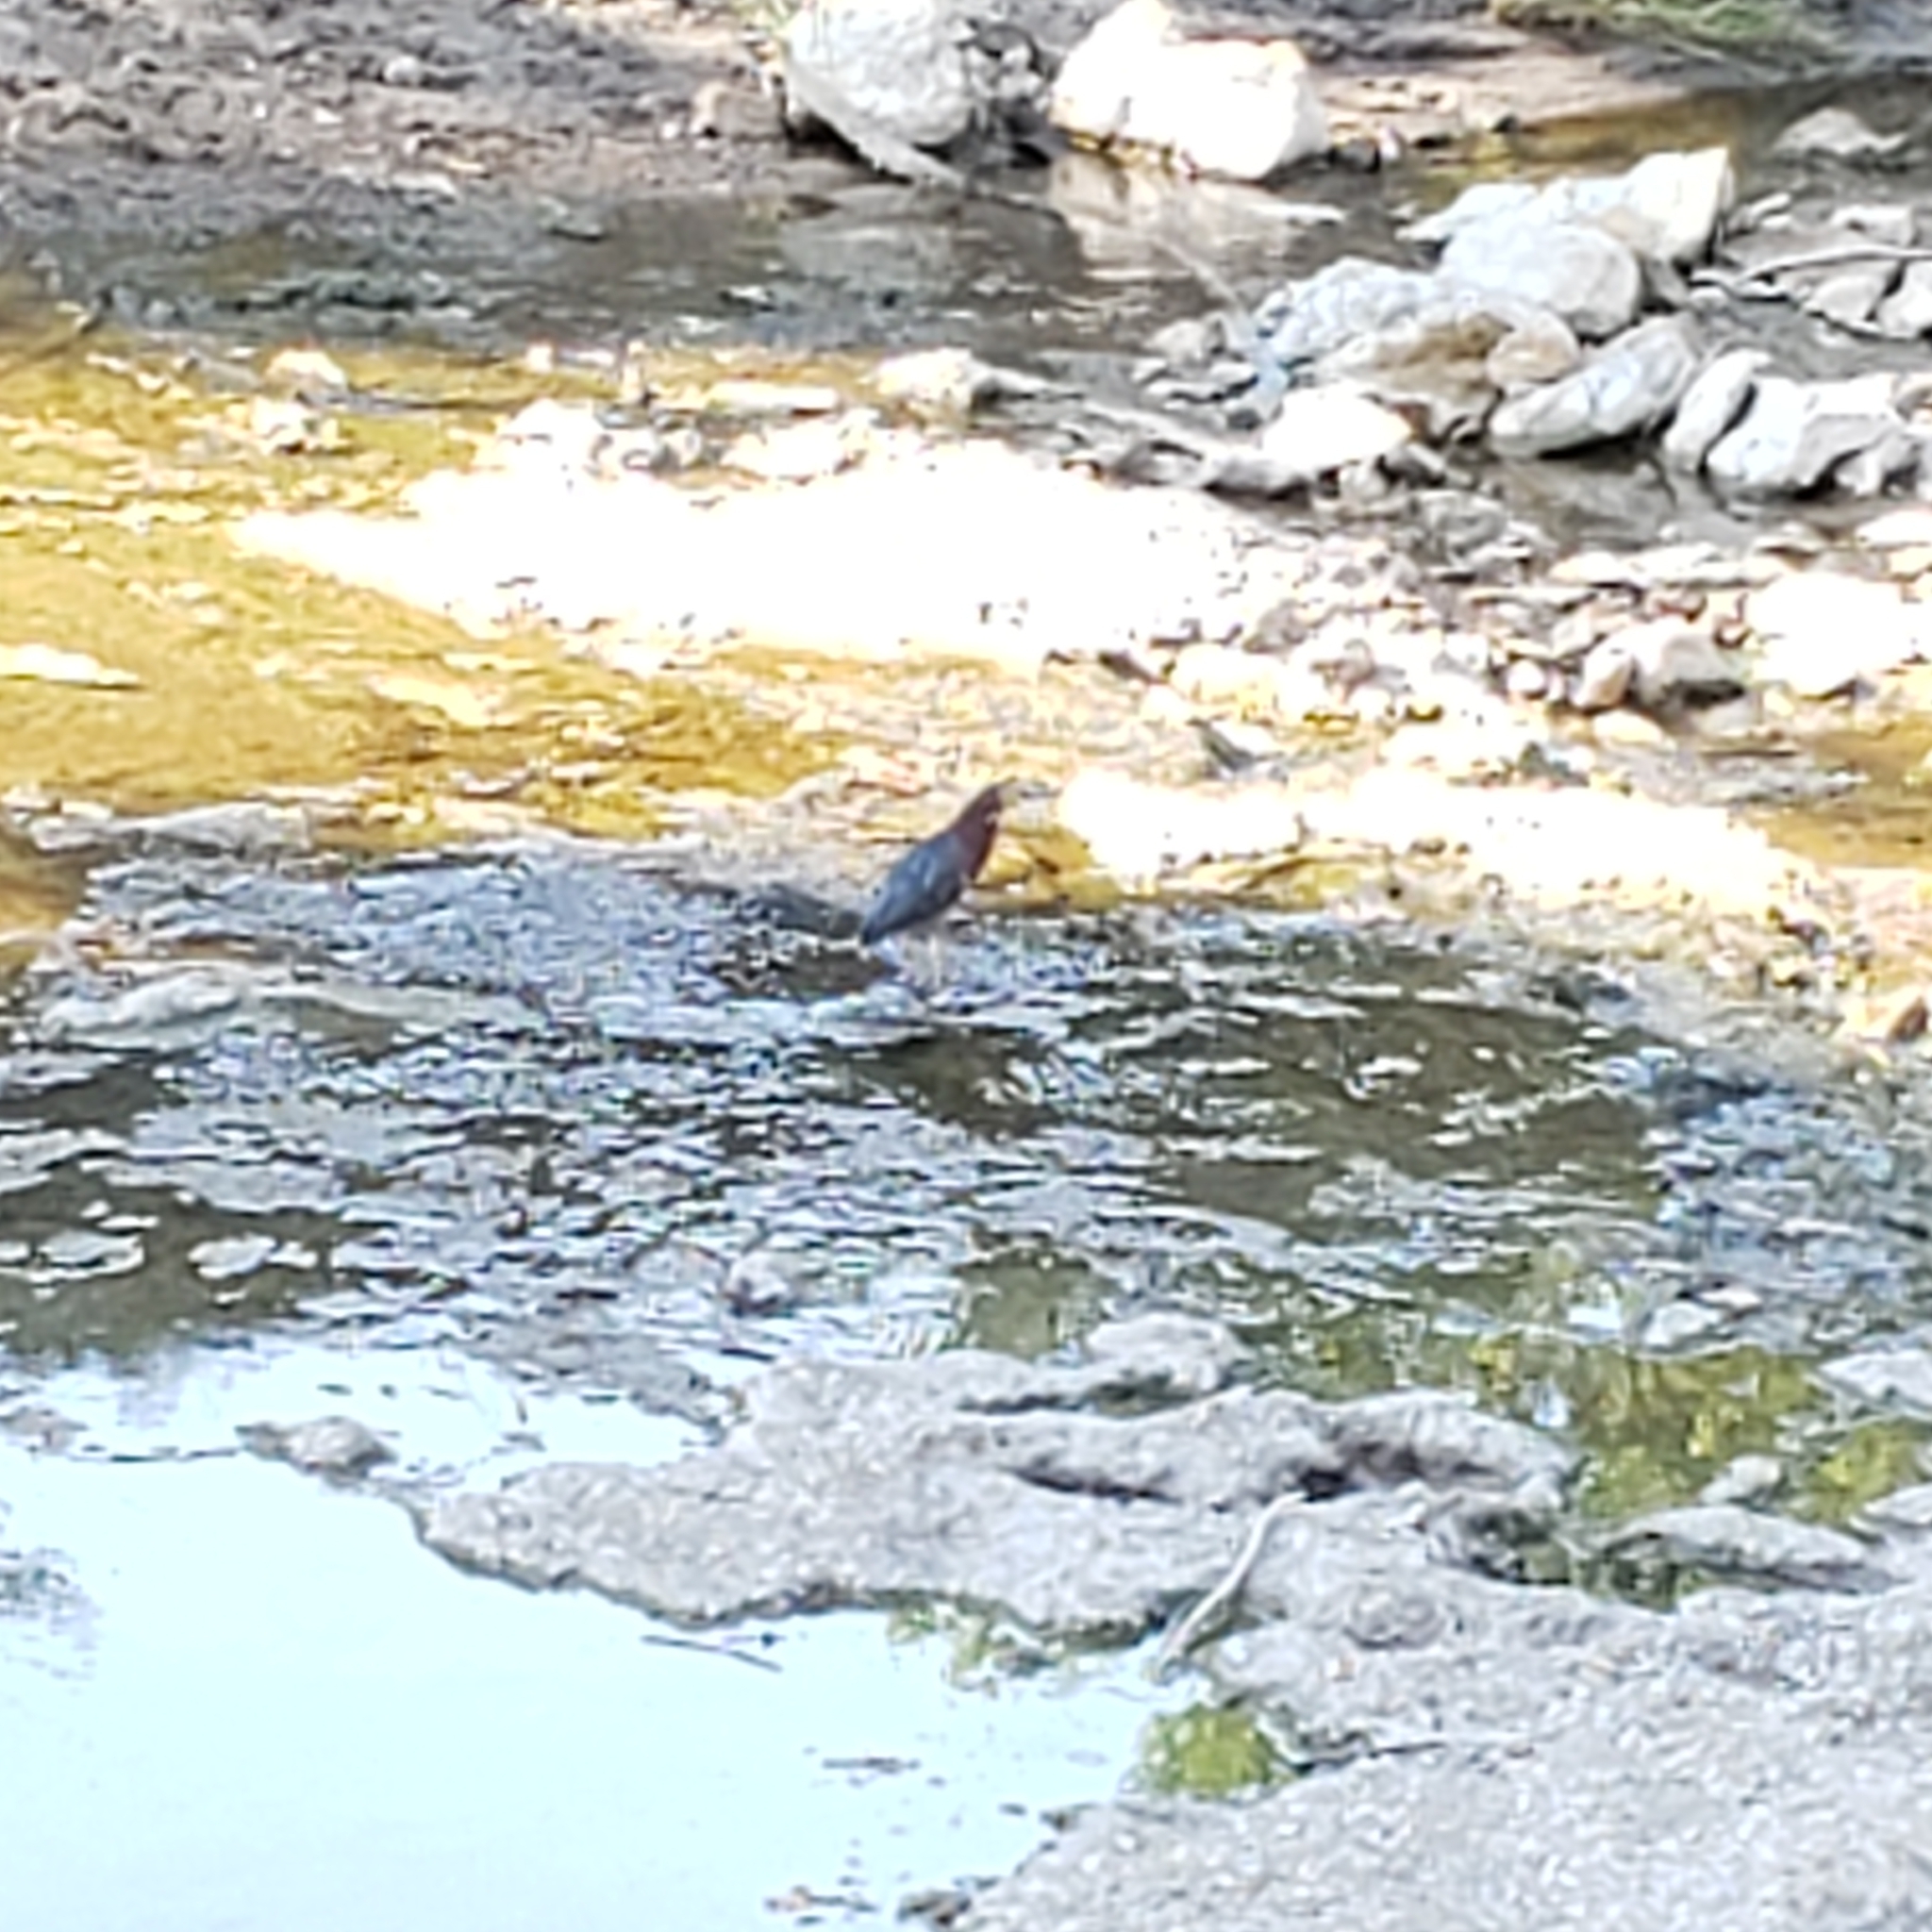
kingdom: Animalia
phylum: Chordata
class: Aves
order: Pelecaniformes
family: Ardeidae
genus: Butorides
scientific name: Butorides virescens
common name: Green heron
